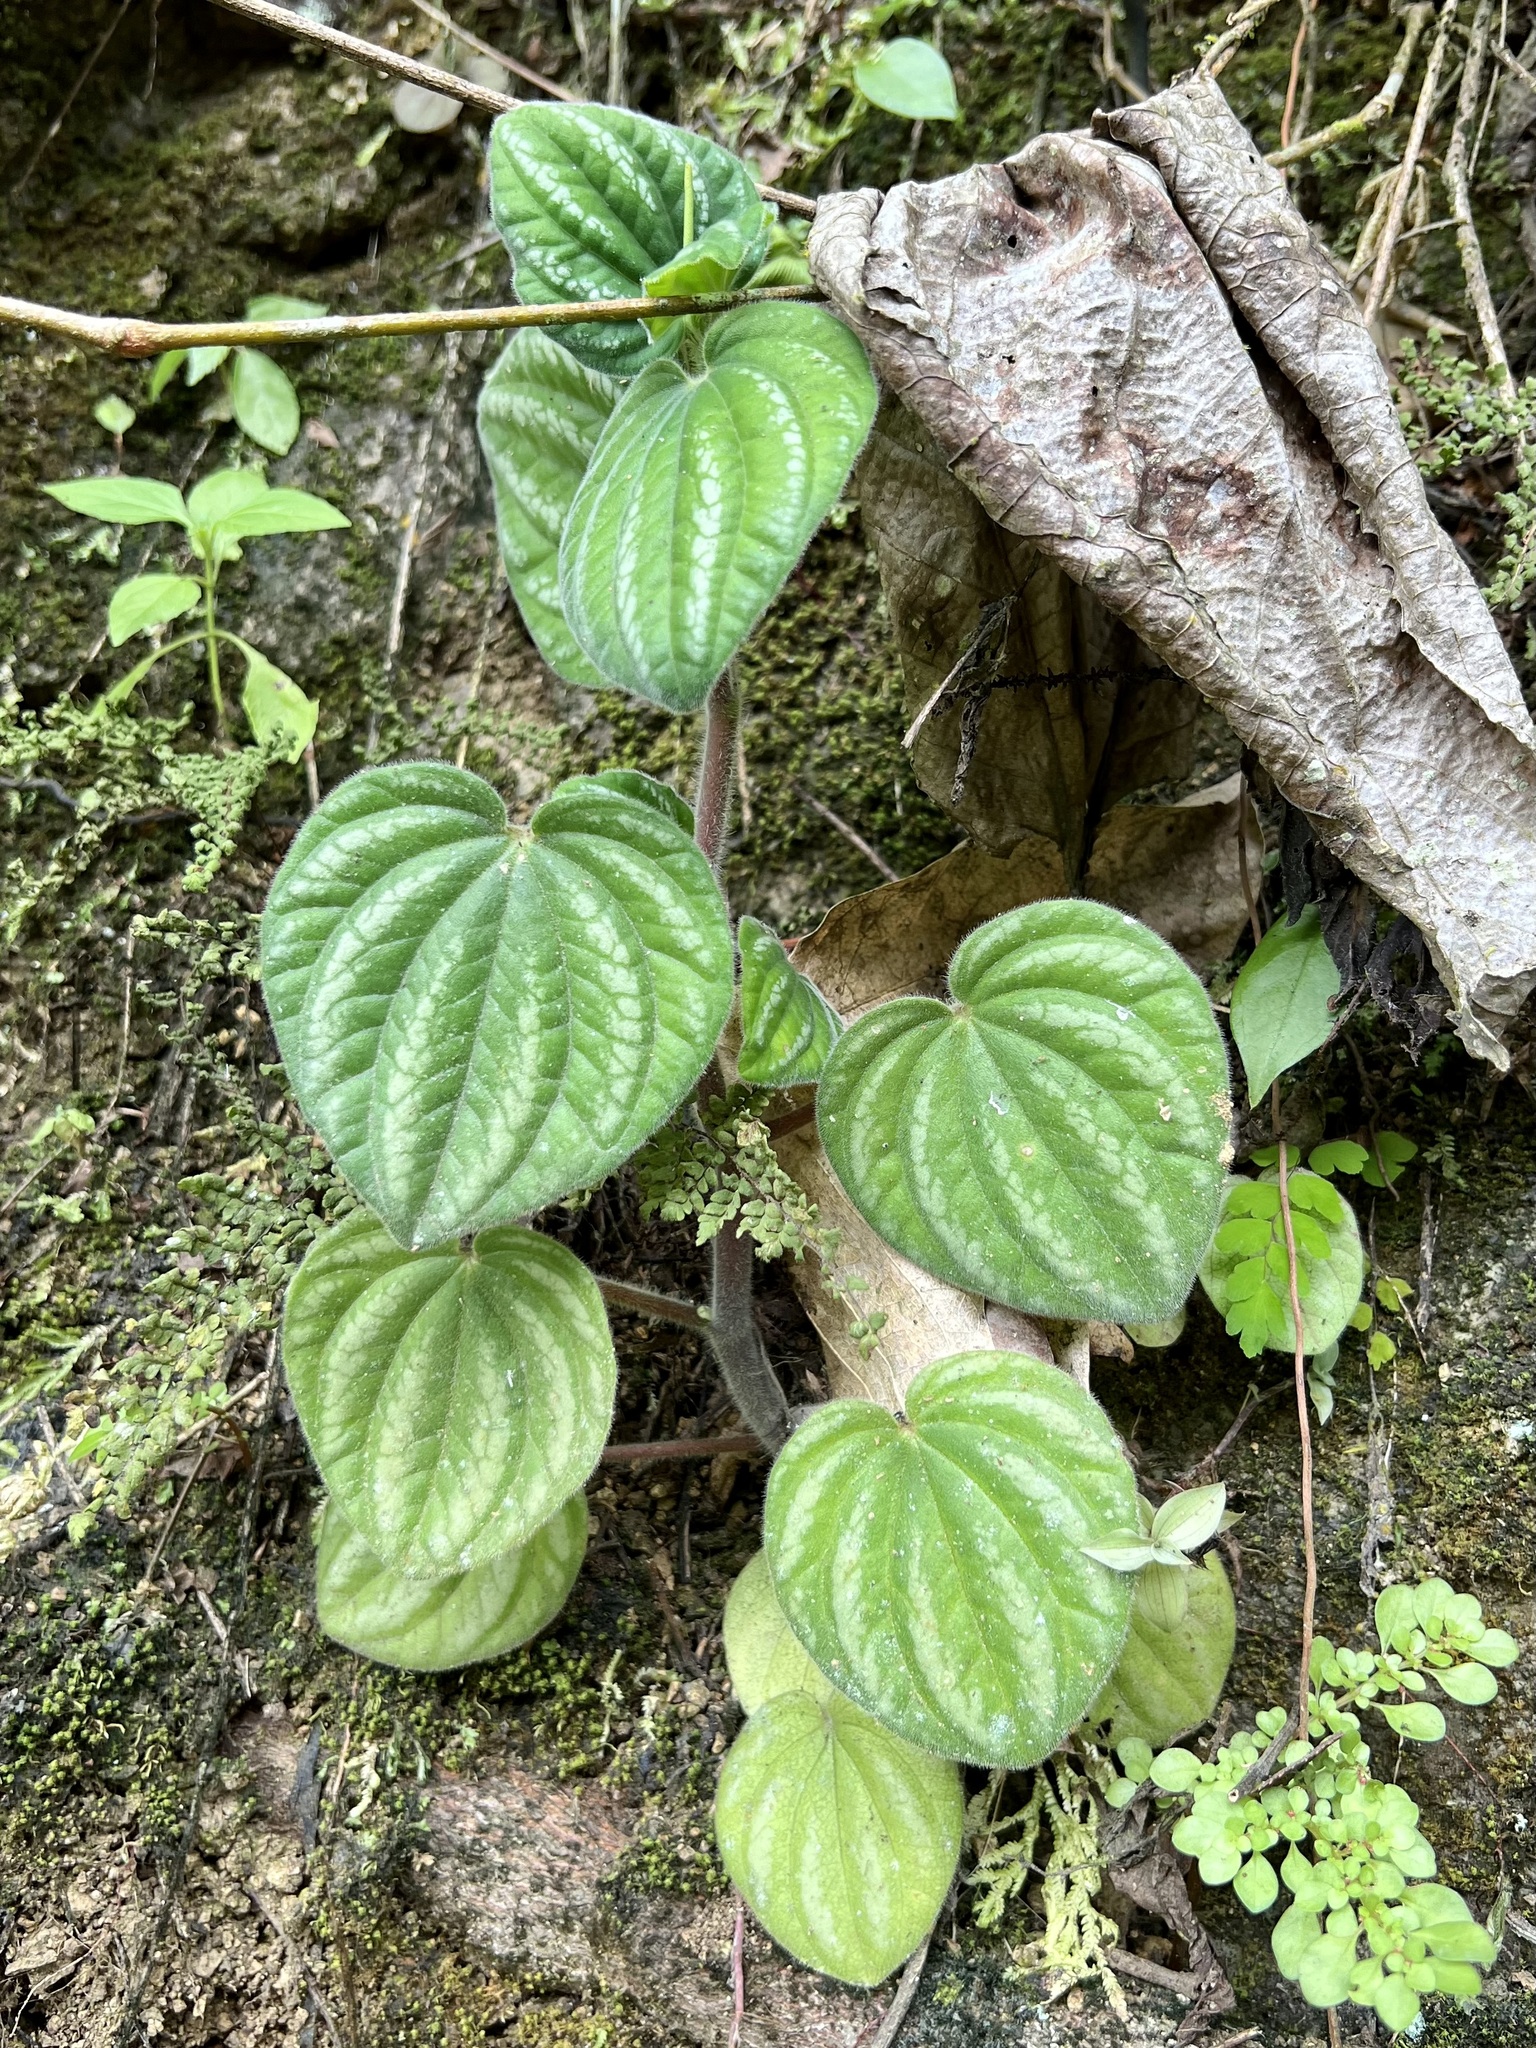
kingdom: Plantae
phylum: Tracheophyta
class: Magnoliopsida
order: Piperales
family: Piperaceae
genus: Peperomia
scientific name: Peperomia albovittata
